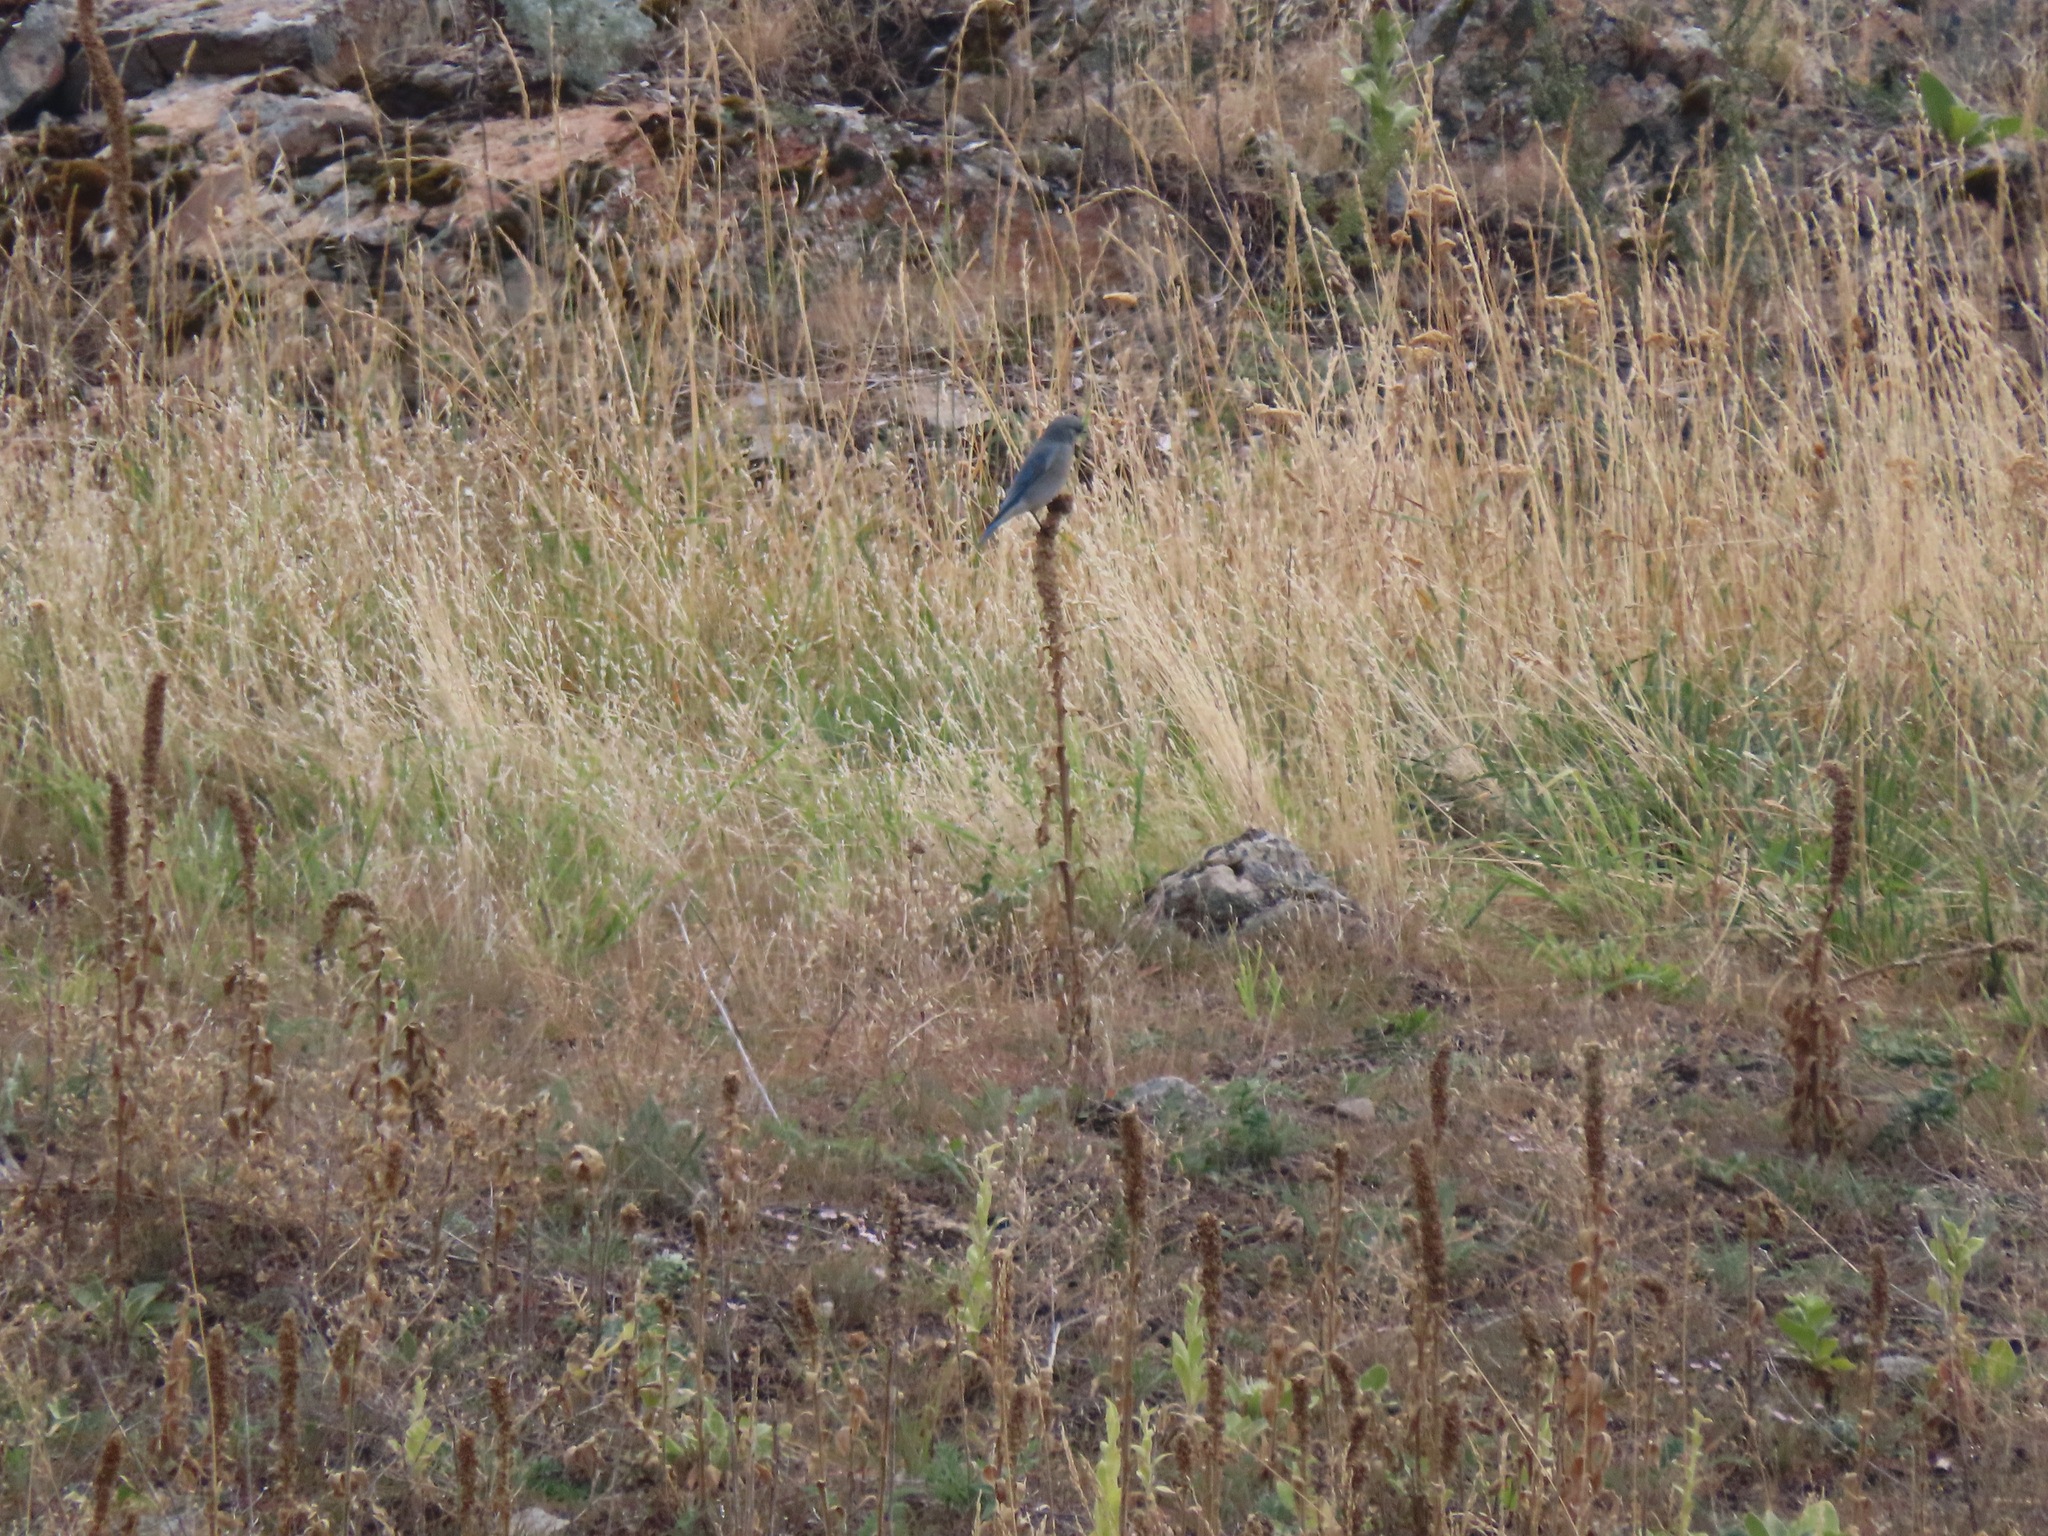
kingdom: Animalia
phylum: Chordata
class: Aves
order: Passeriformes
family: Turdidae
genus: Sialia
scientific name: Sialia currucoides
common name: Mountain bluebird
